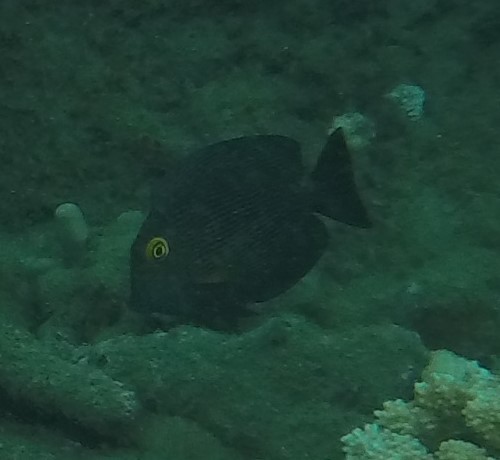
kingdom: Animalia
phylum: Chordata
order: Perciformes
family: Acanthuridae
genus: Ctenochaetus
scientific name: Ctenochaetus strigosus
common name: Bristletoothed surgeonfish
